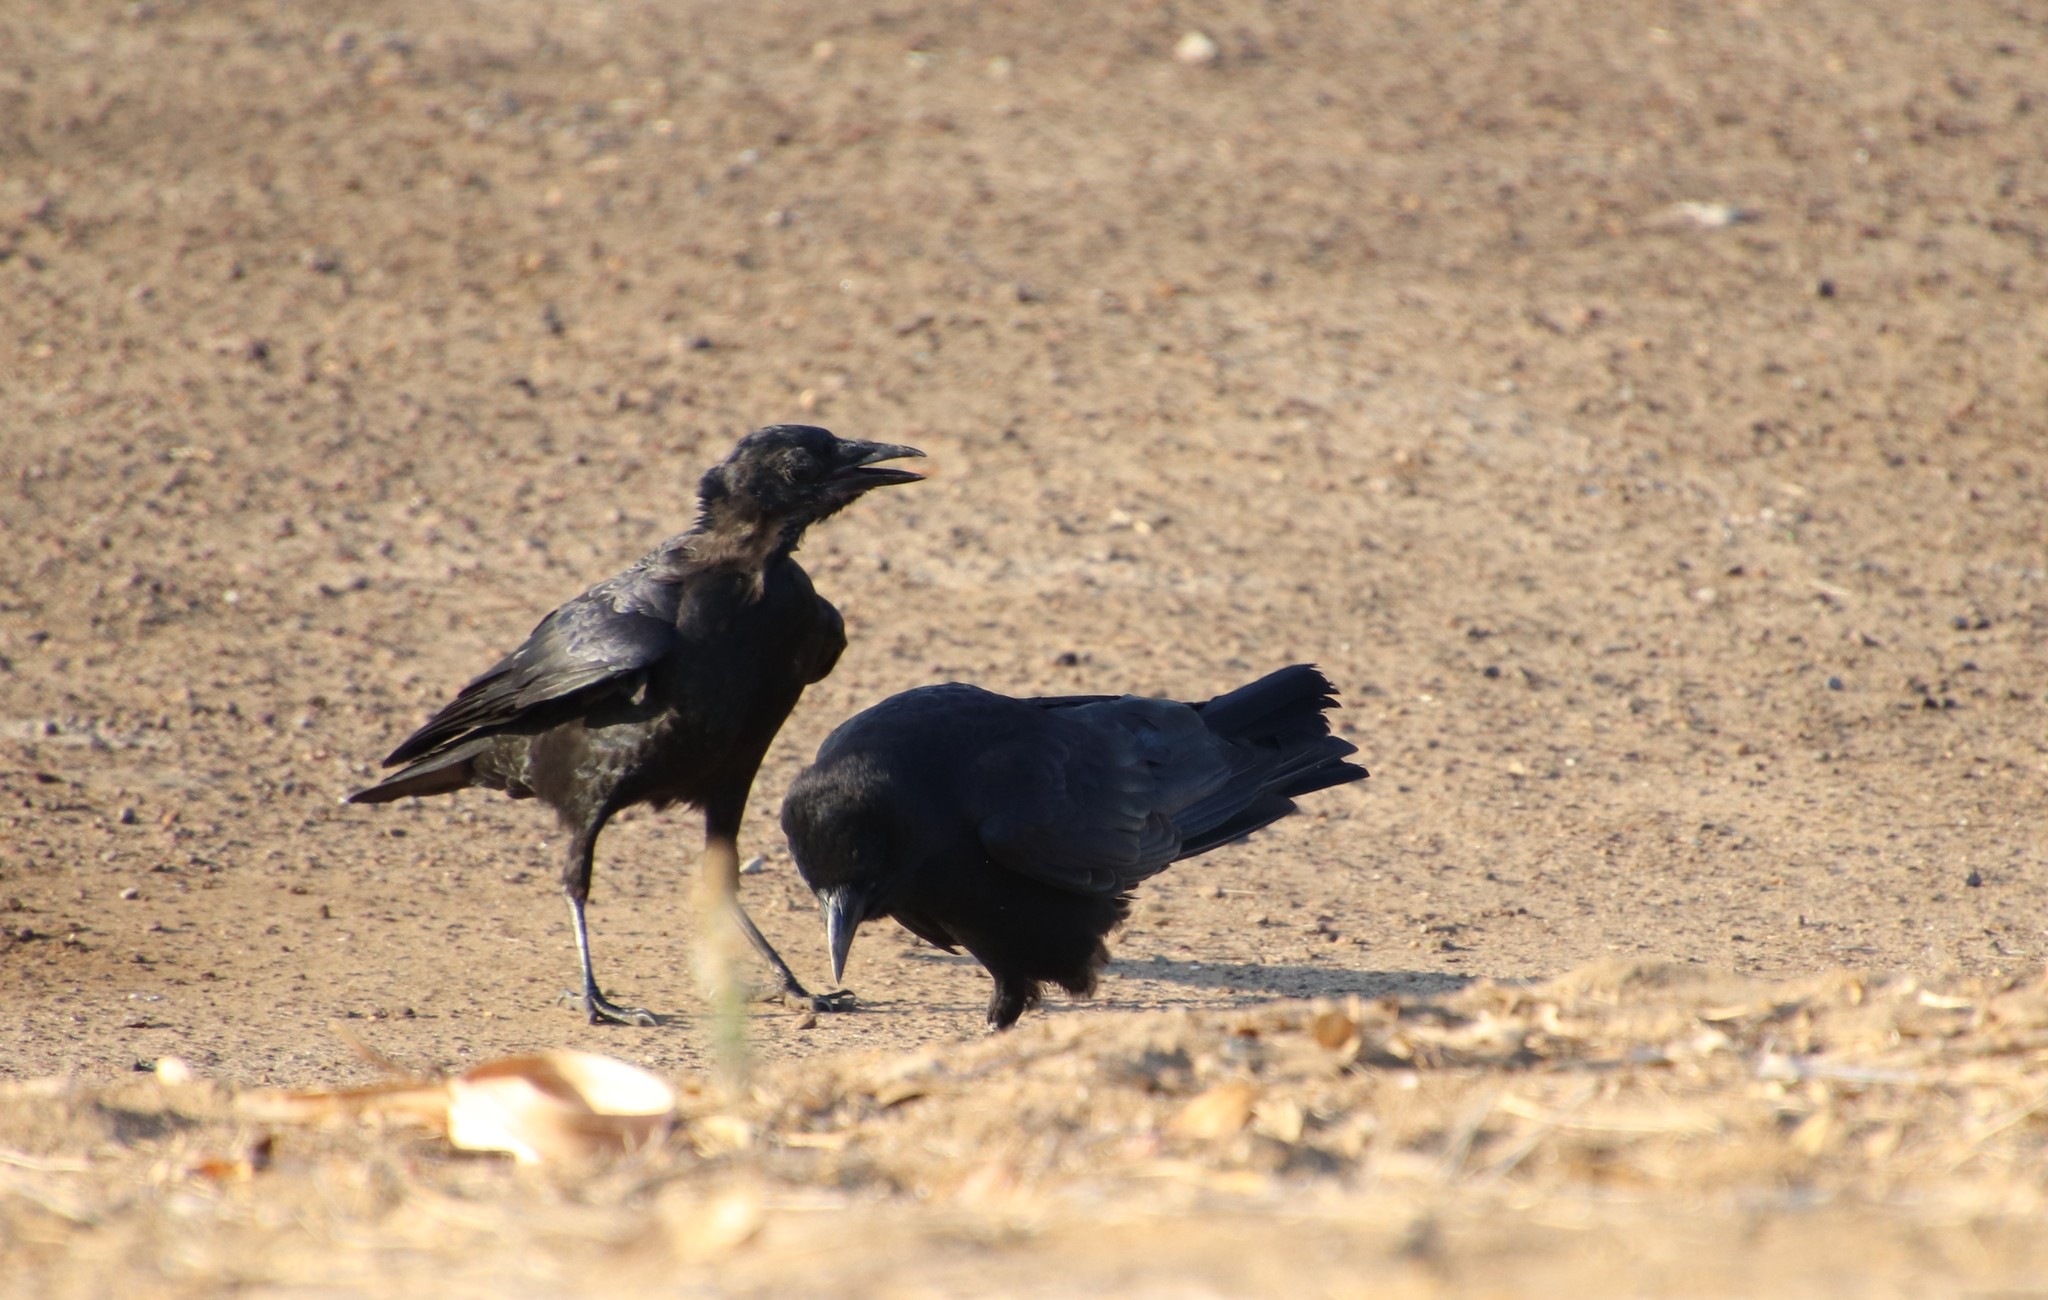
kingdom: Animalia
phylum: Chordata
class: Aves
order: Passeriformes
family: Corvidae
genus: Corvus
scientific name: Corvus brachyrhynchos
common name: American crow
